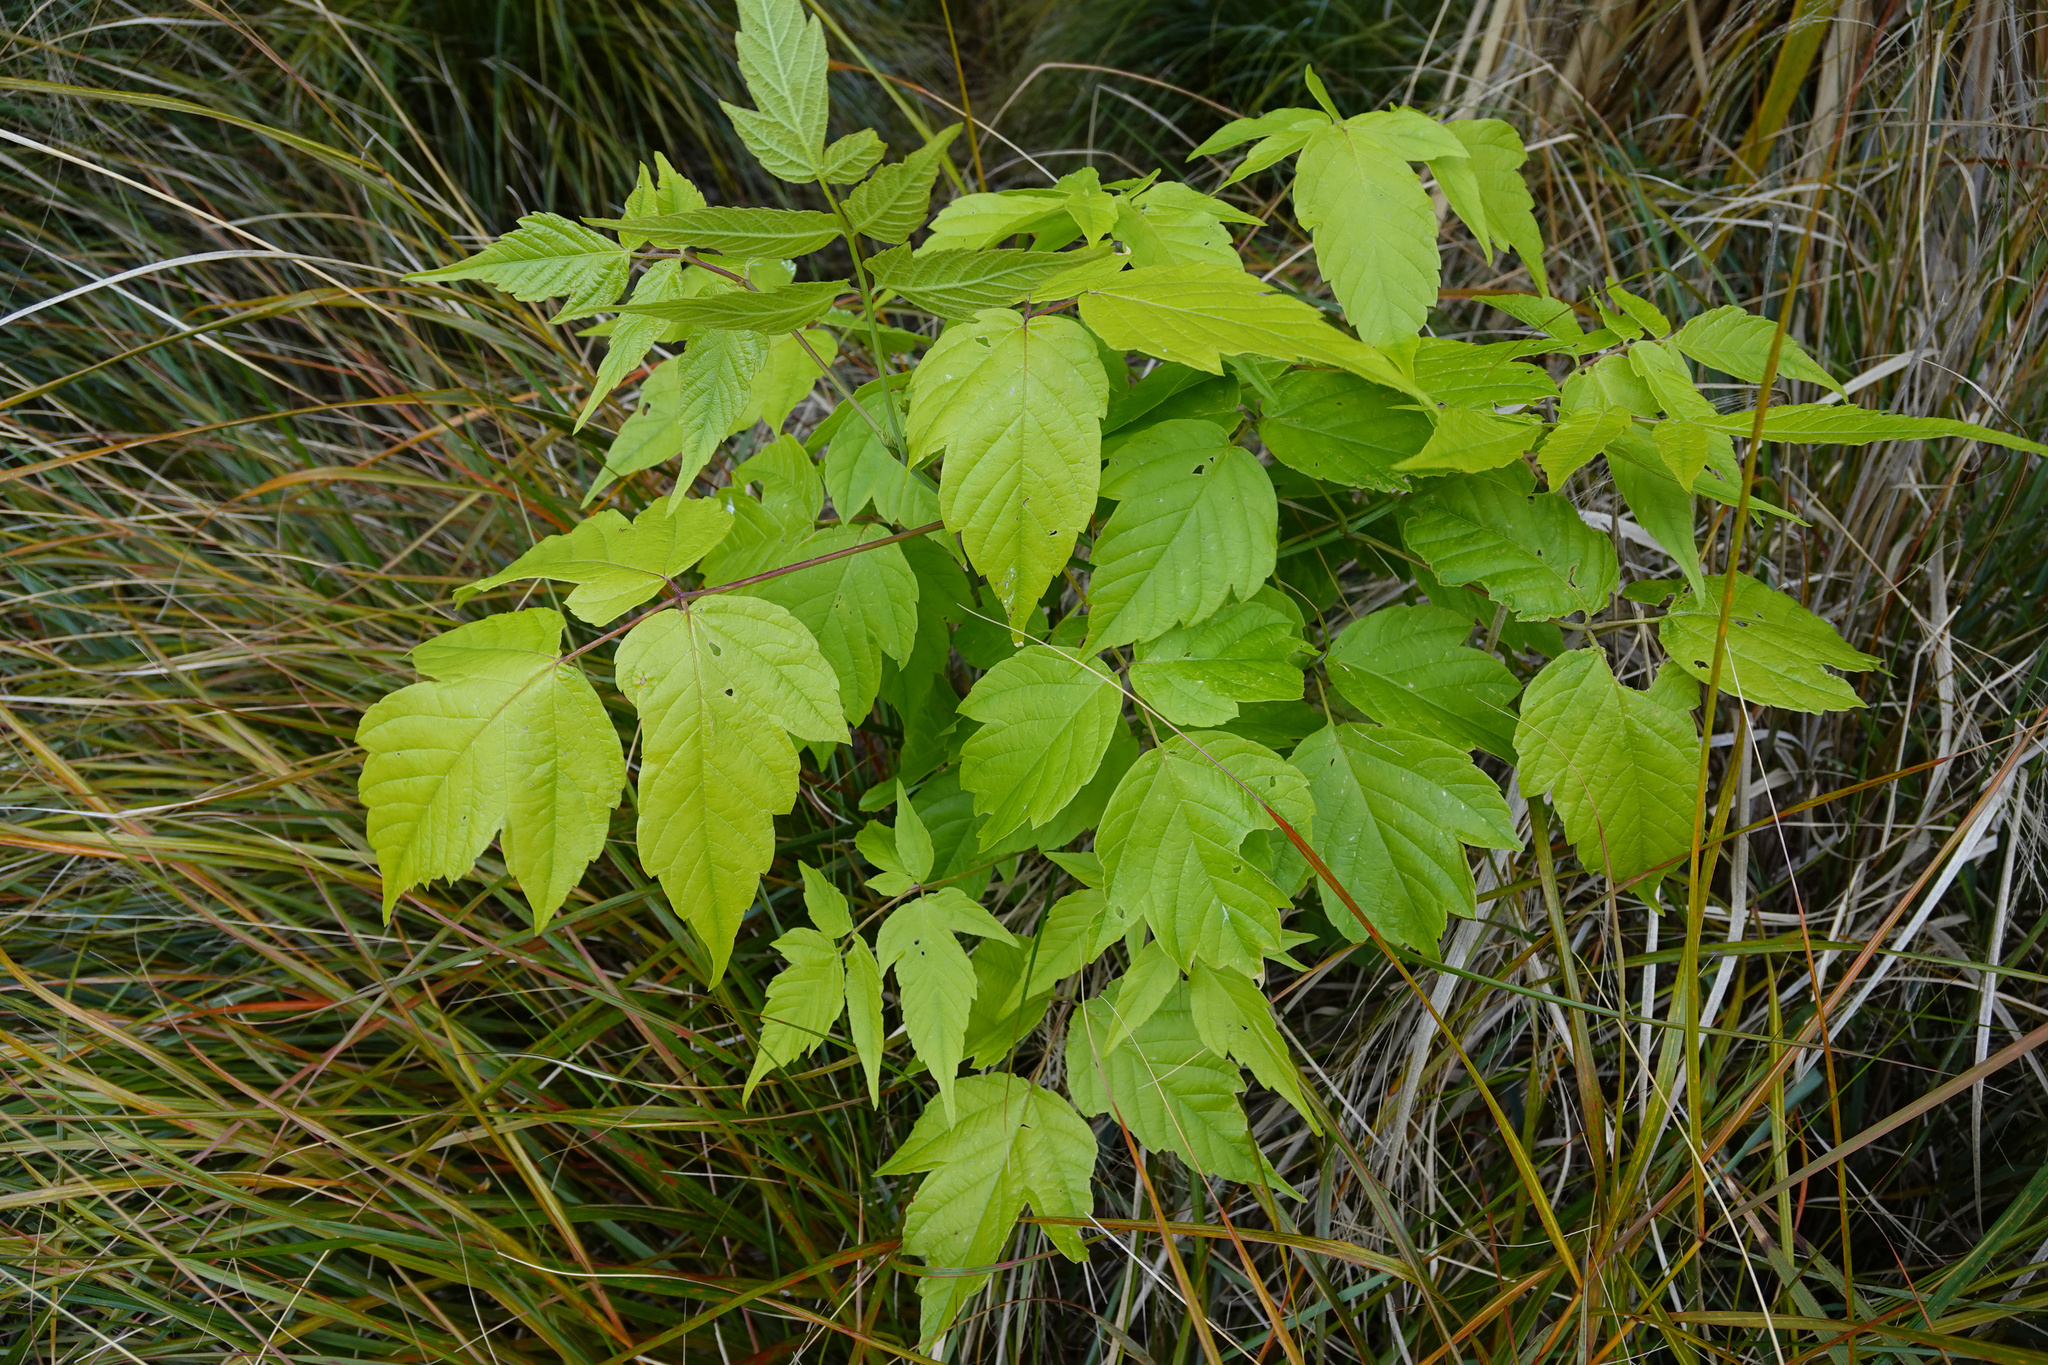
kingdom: Plantae
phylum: Tracheophyta
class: Magnoliopsida
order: Sapindales
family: Sapindaceae
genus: Acer
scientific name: Acer negundo
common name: Ashleaf maple
